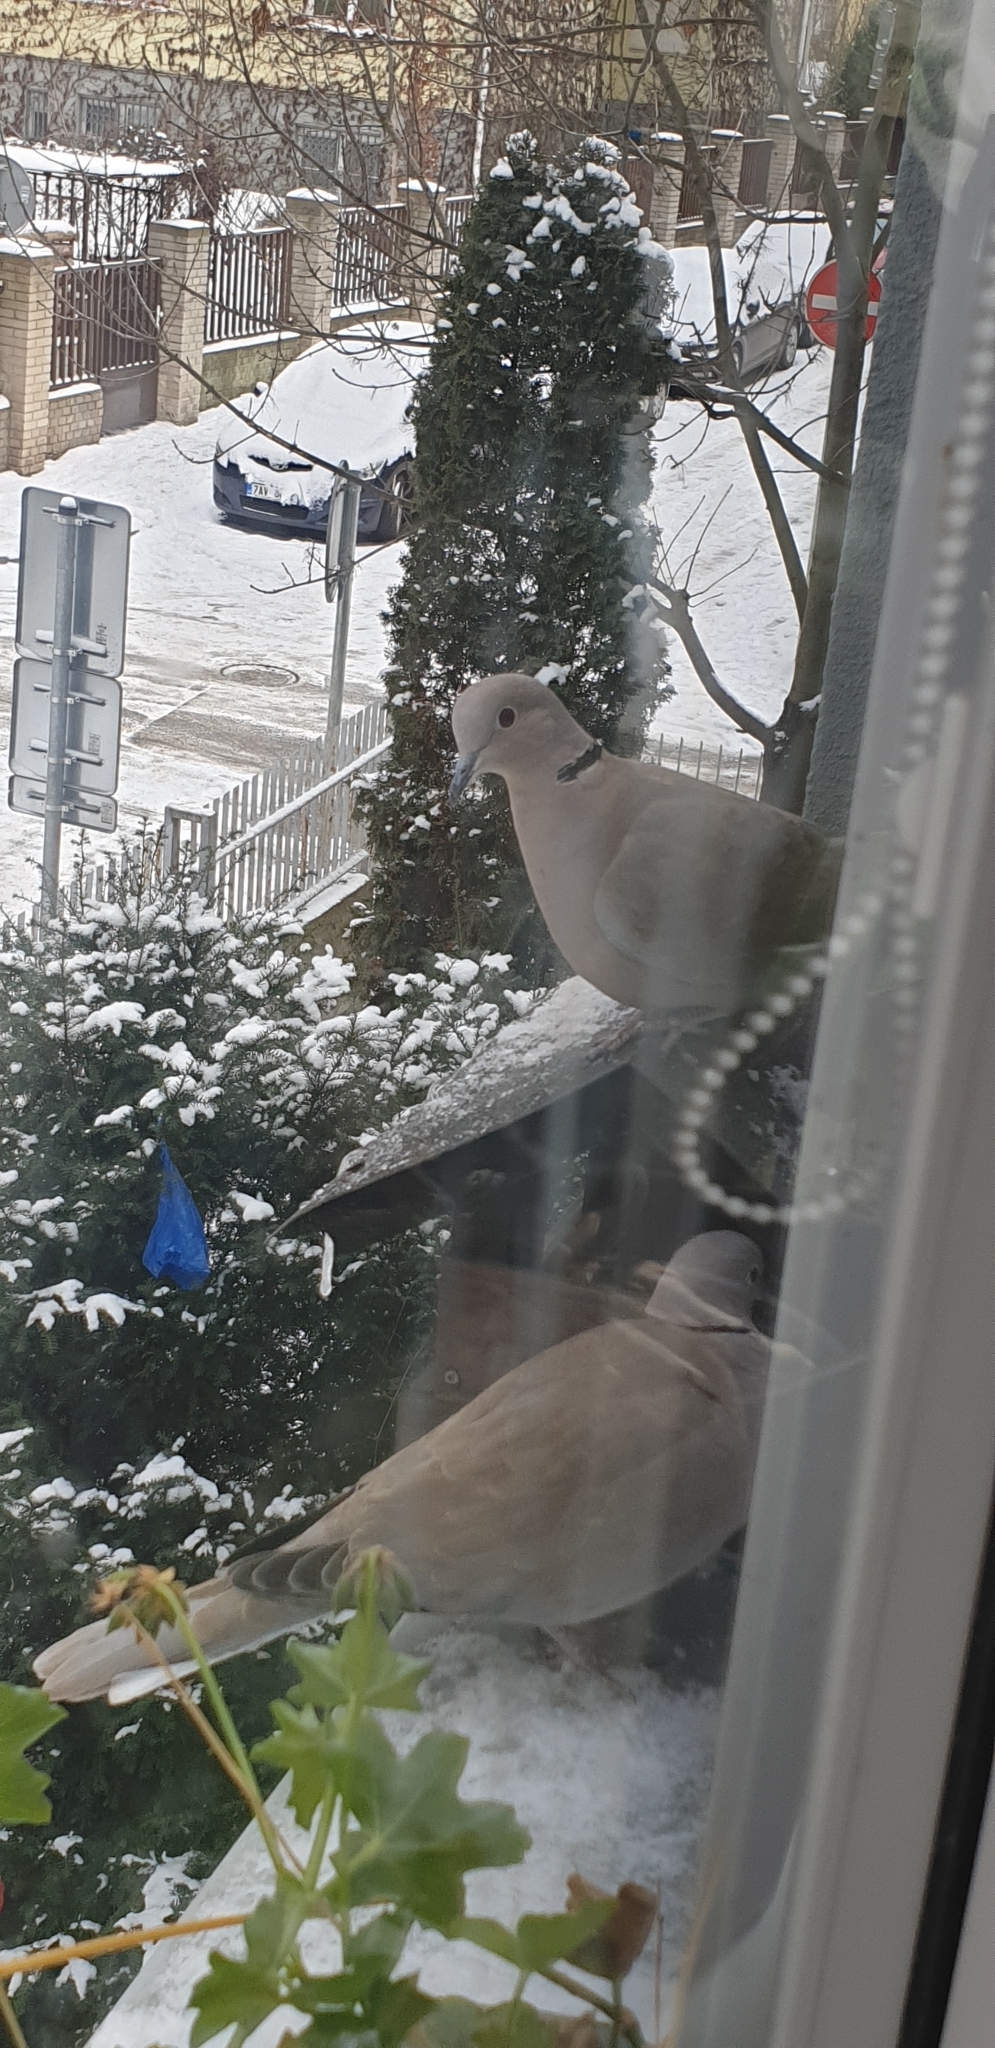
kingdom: Animalia
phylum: Chordata
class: Aves
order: Columbiformes
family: Columbidae
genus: Streptopelia
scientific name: Streptopelia decaocto
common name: Eurasian collared dove
